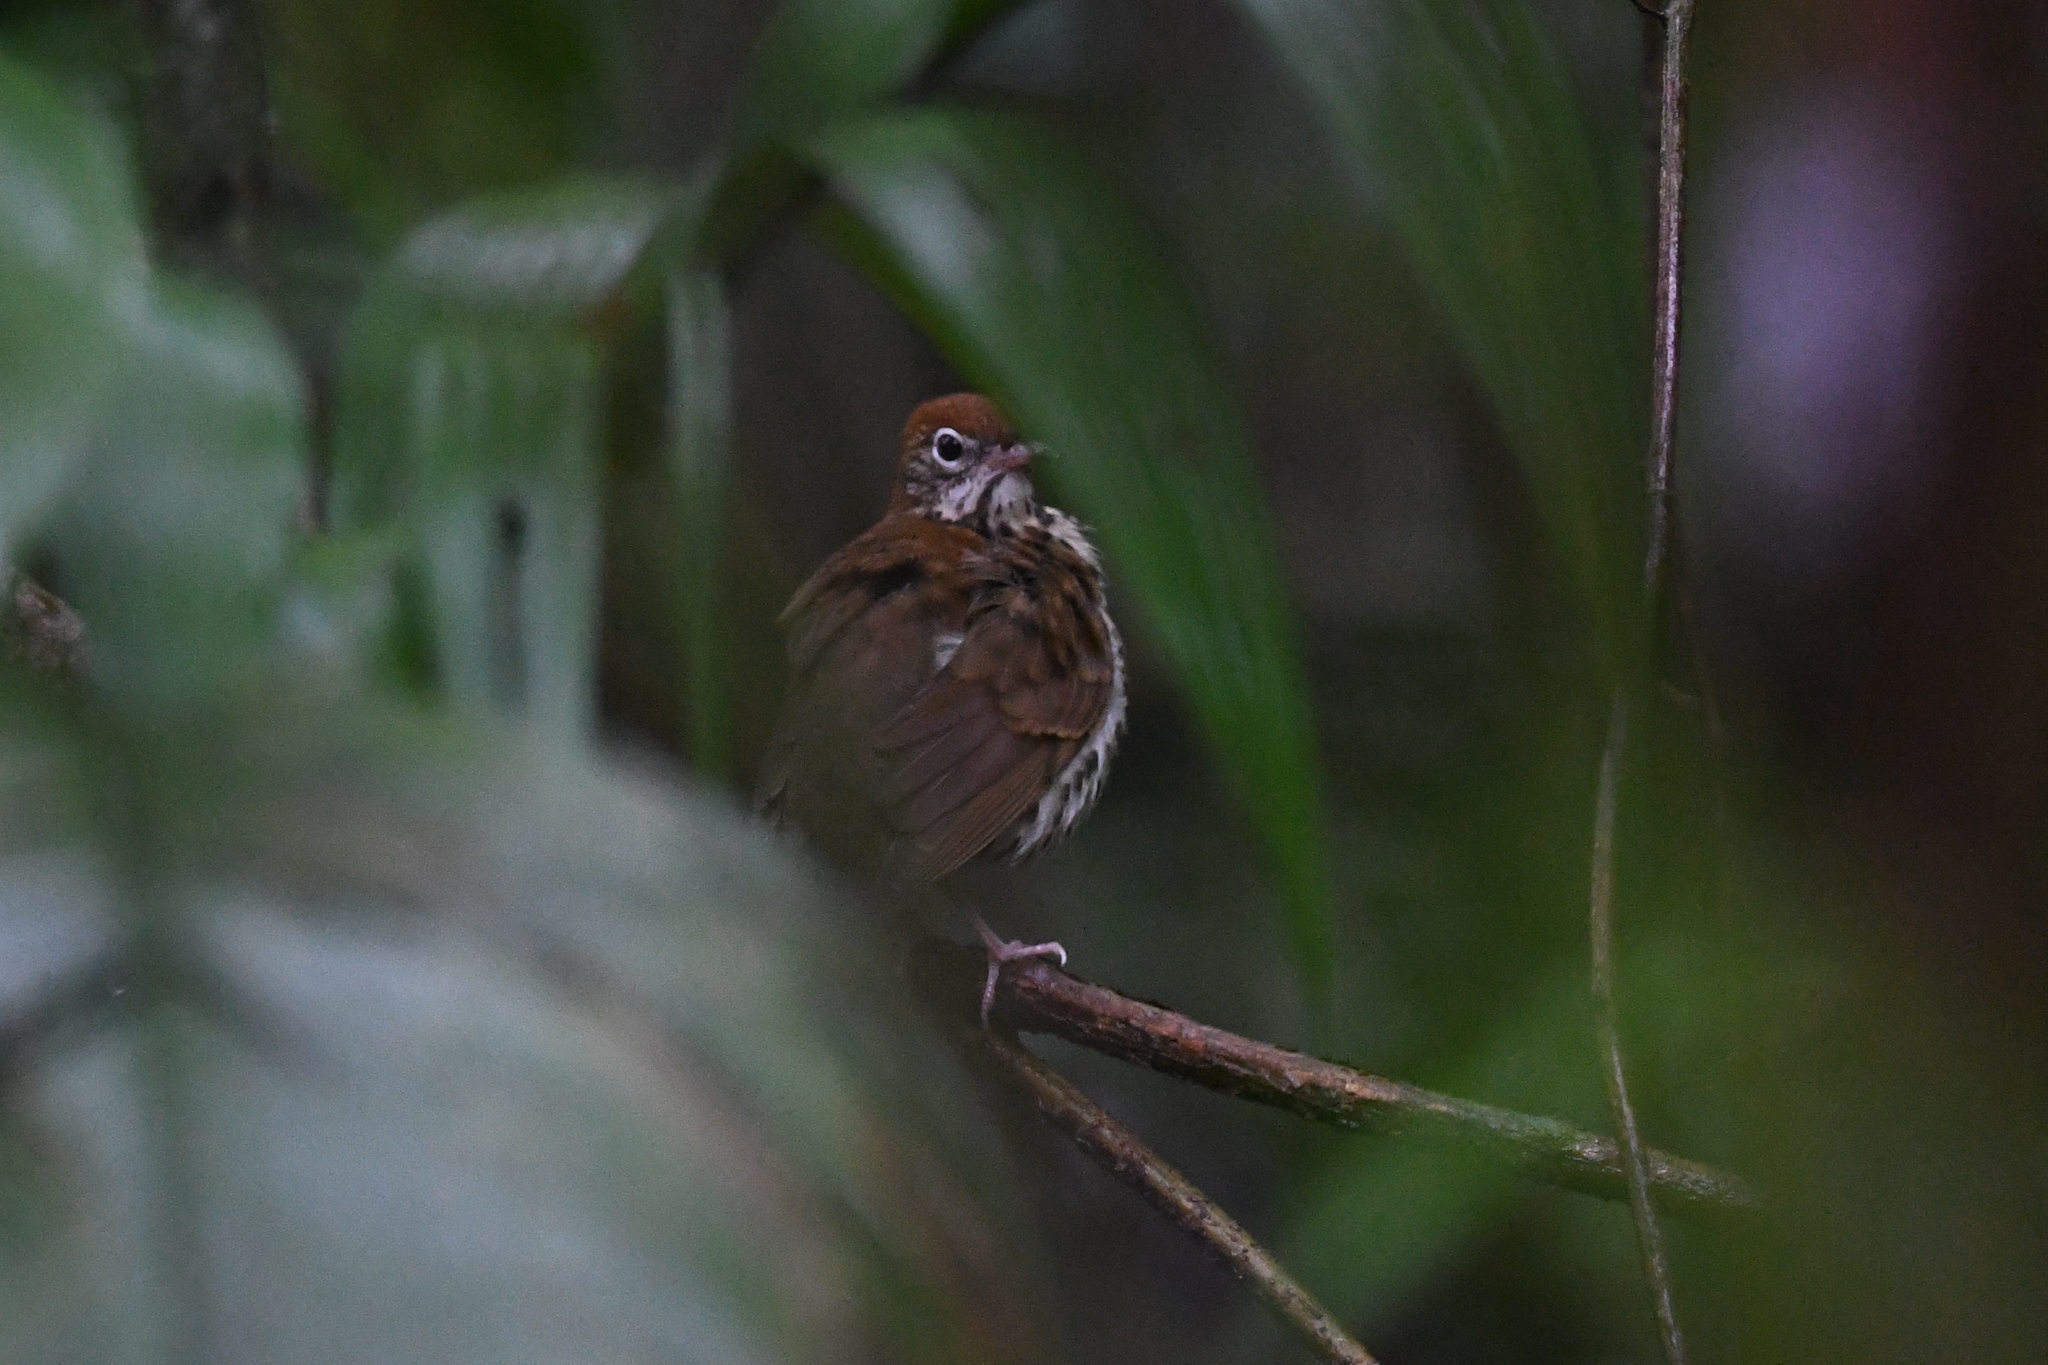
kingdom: Animalia
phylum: Chordata
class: Aves
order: Passeriformes
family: Turdidae
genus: Hylocichla
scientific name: Hylocichla mustelina
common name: Wood thrush
